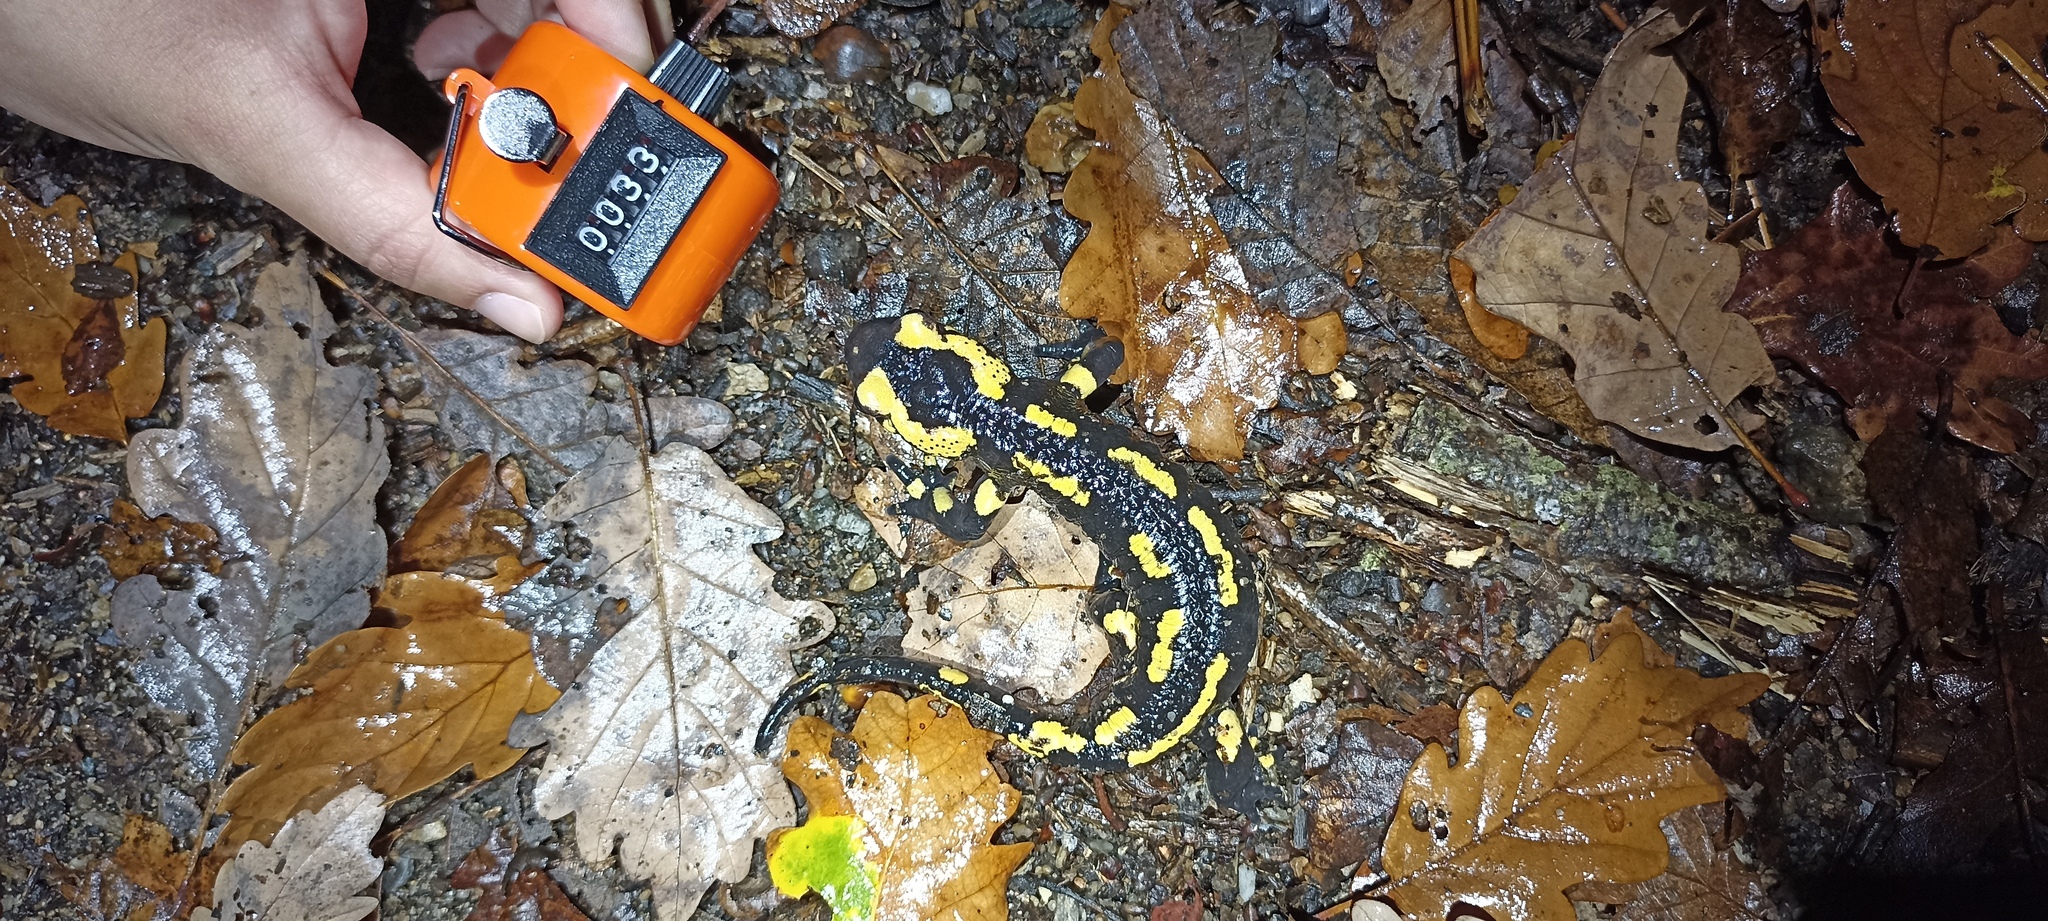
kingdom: Animalia
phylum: Chordata
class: Amphibia
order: Caudata
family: Salamandridae
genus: Salamandra
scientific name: Salamandra salamandra
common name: Fire salamander
